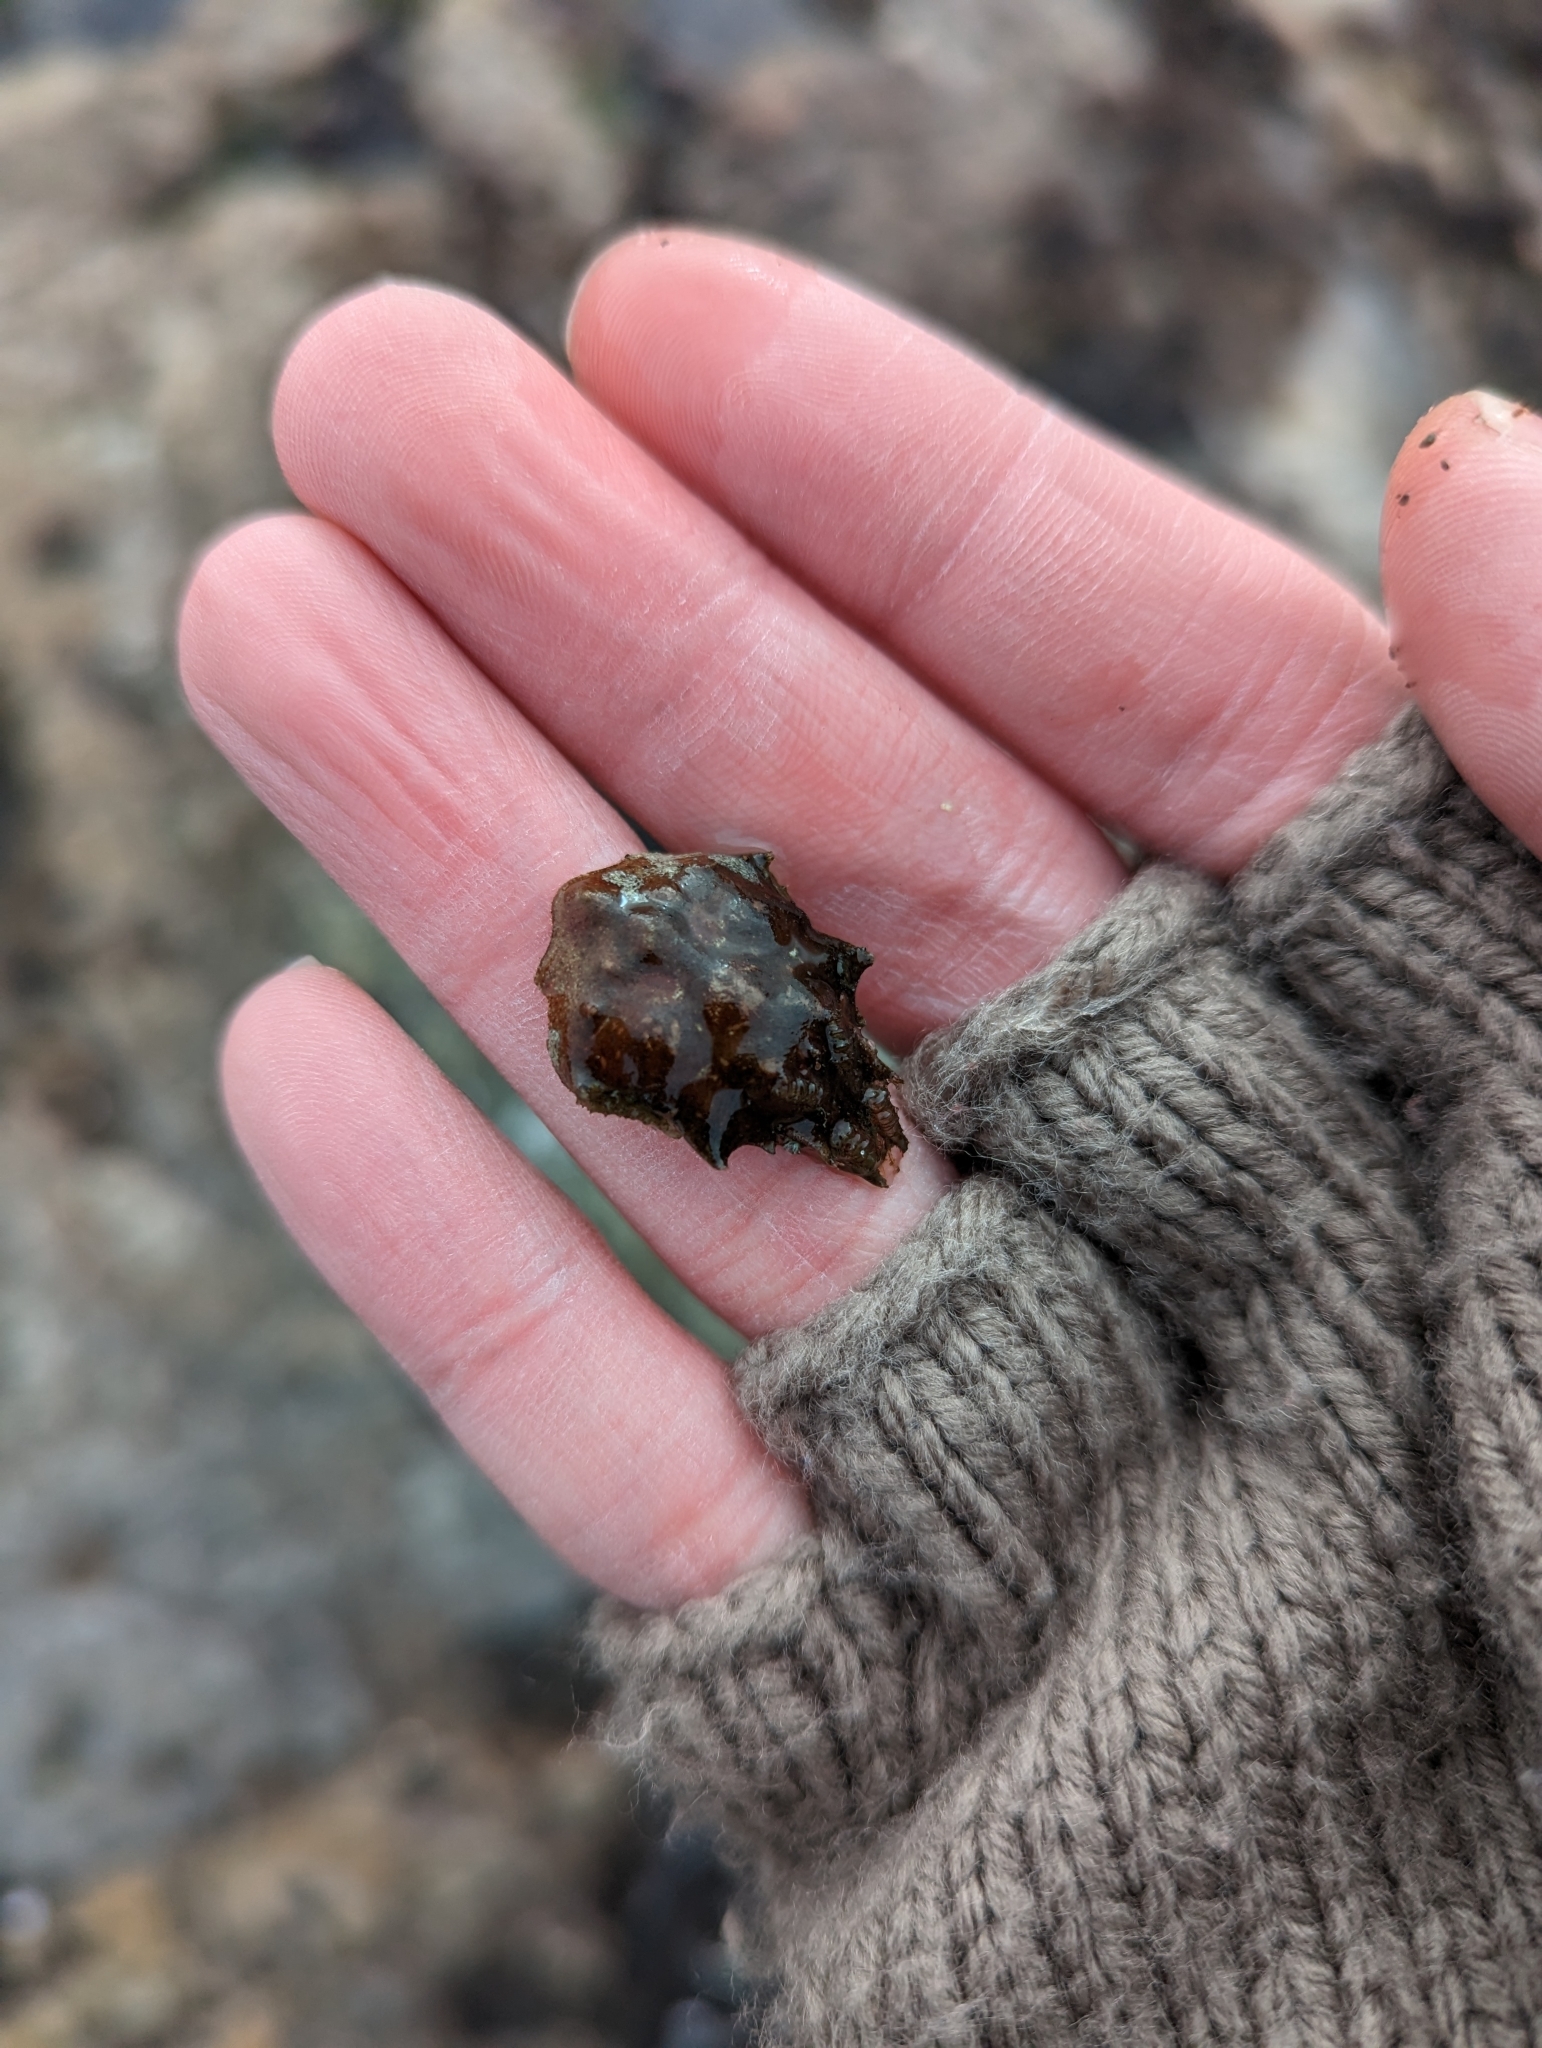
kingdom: Animalia
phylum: Arthropoda
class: Malacostraca
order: Decapoda
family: Epialtidae
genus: Pugettia
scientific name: Pugettia gracilis
